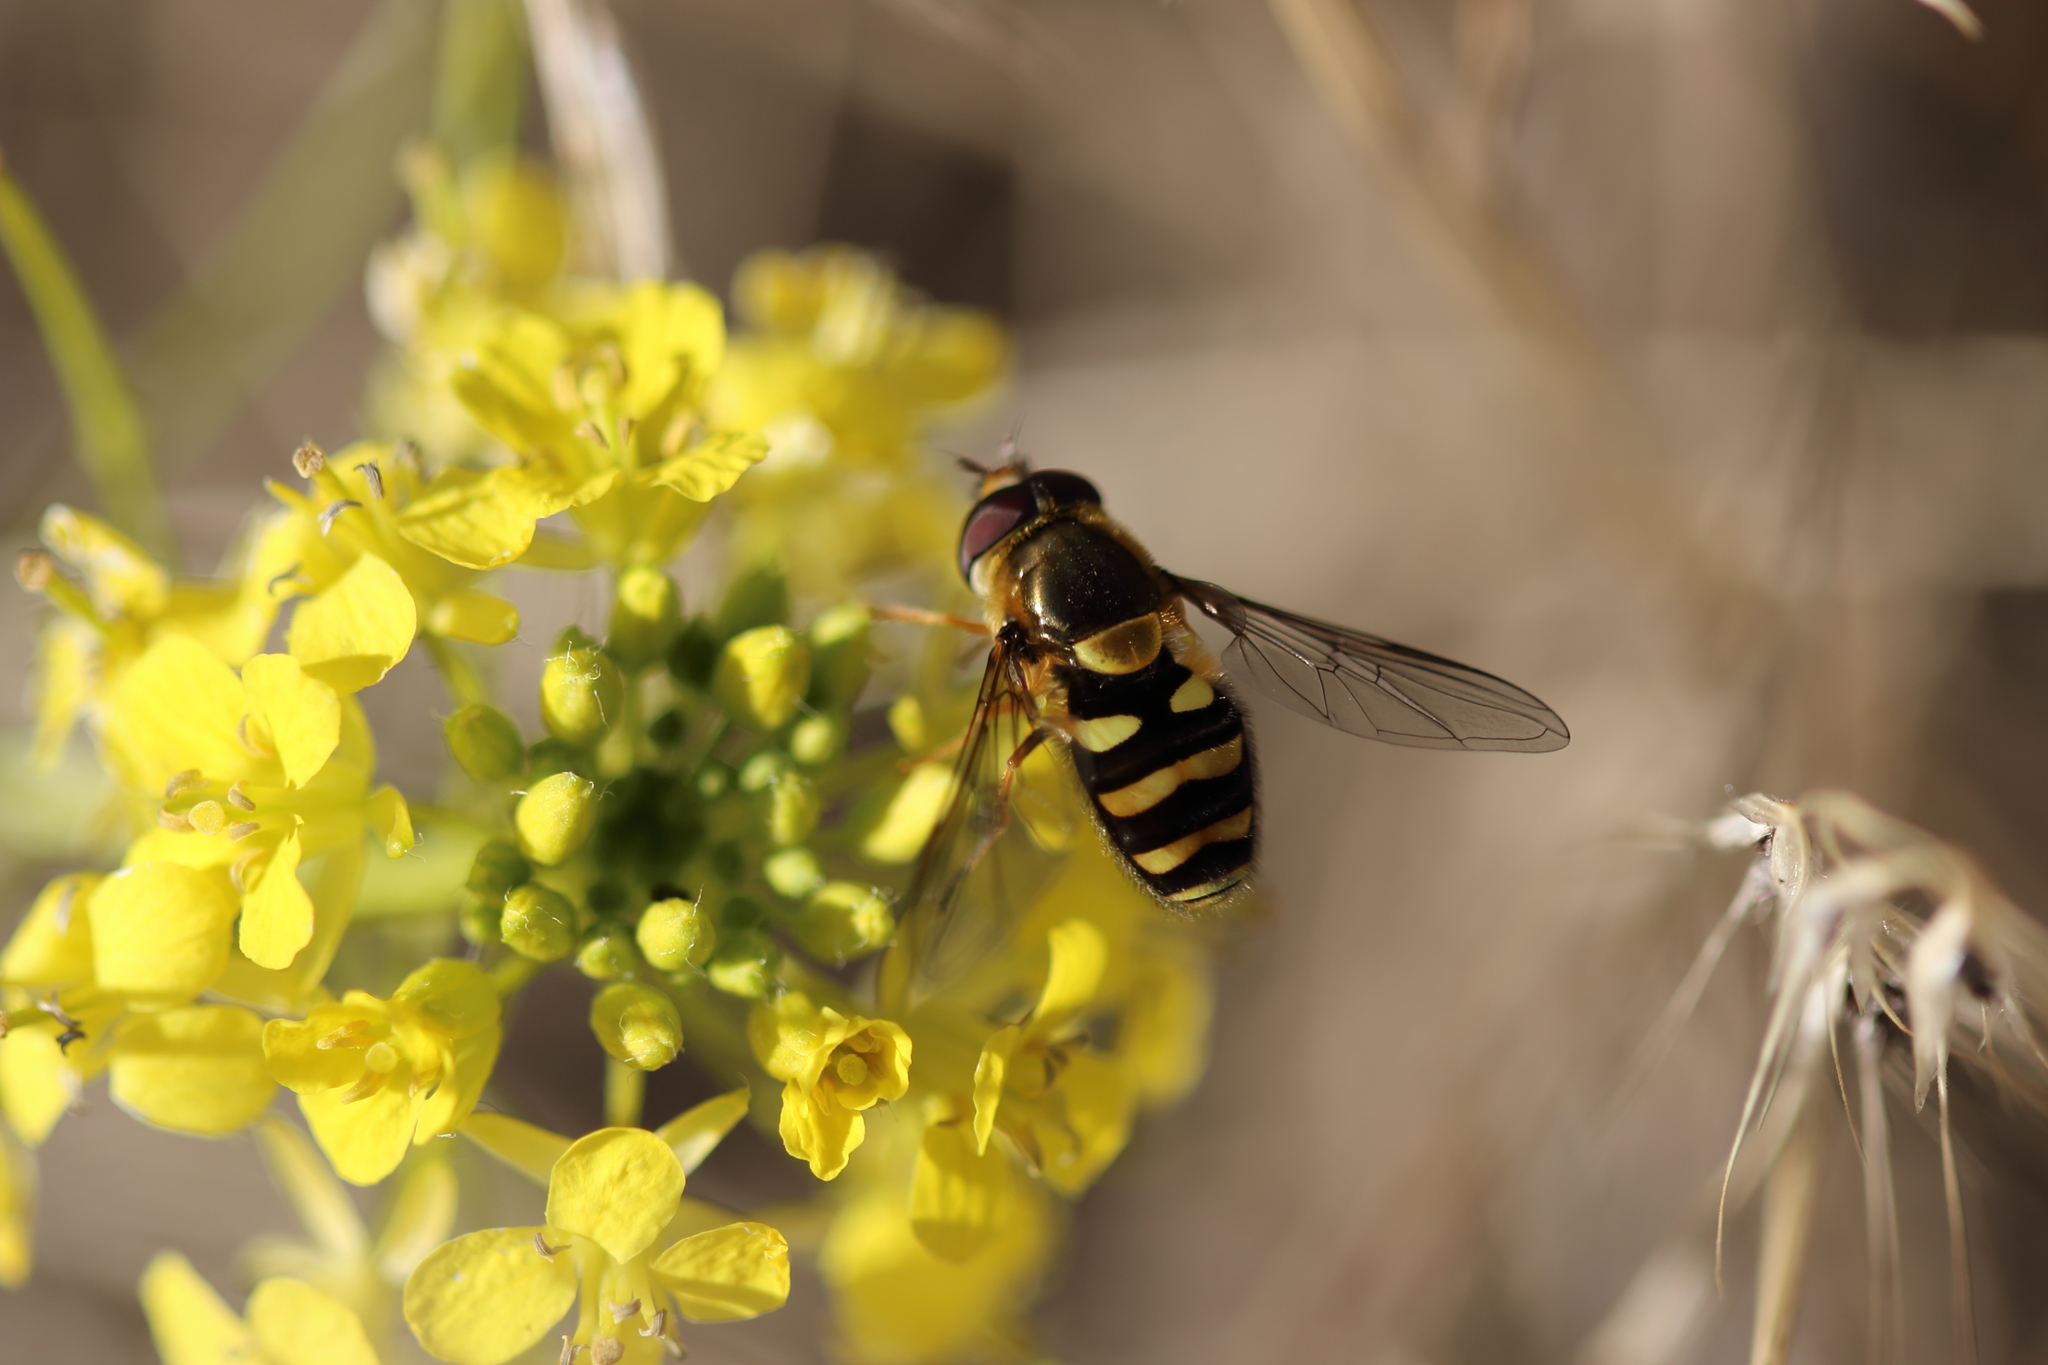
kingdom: Animalia
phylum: Arthropoda
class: Insecta
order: Diptera
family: Syrphidae
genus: Syrphus
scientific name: Syrphus opinator
